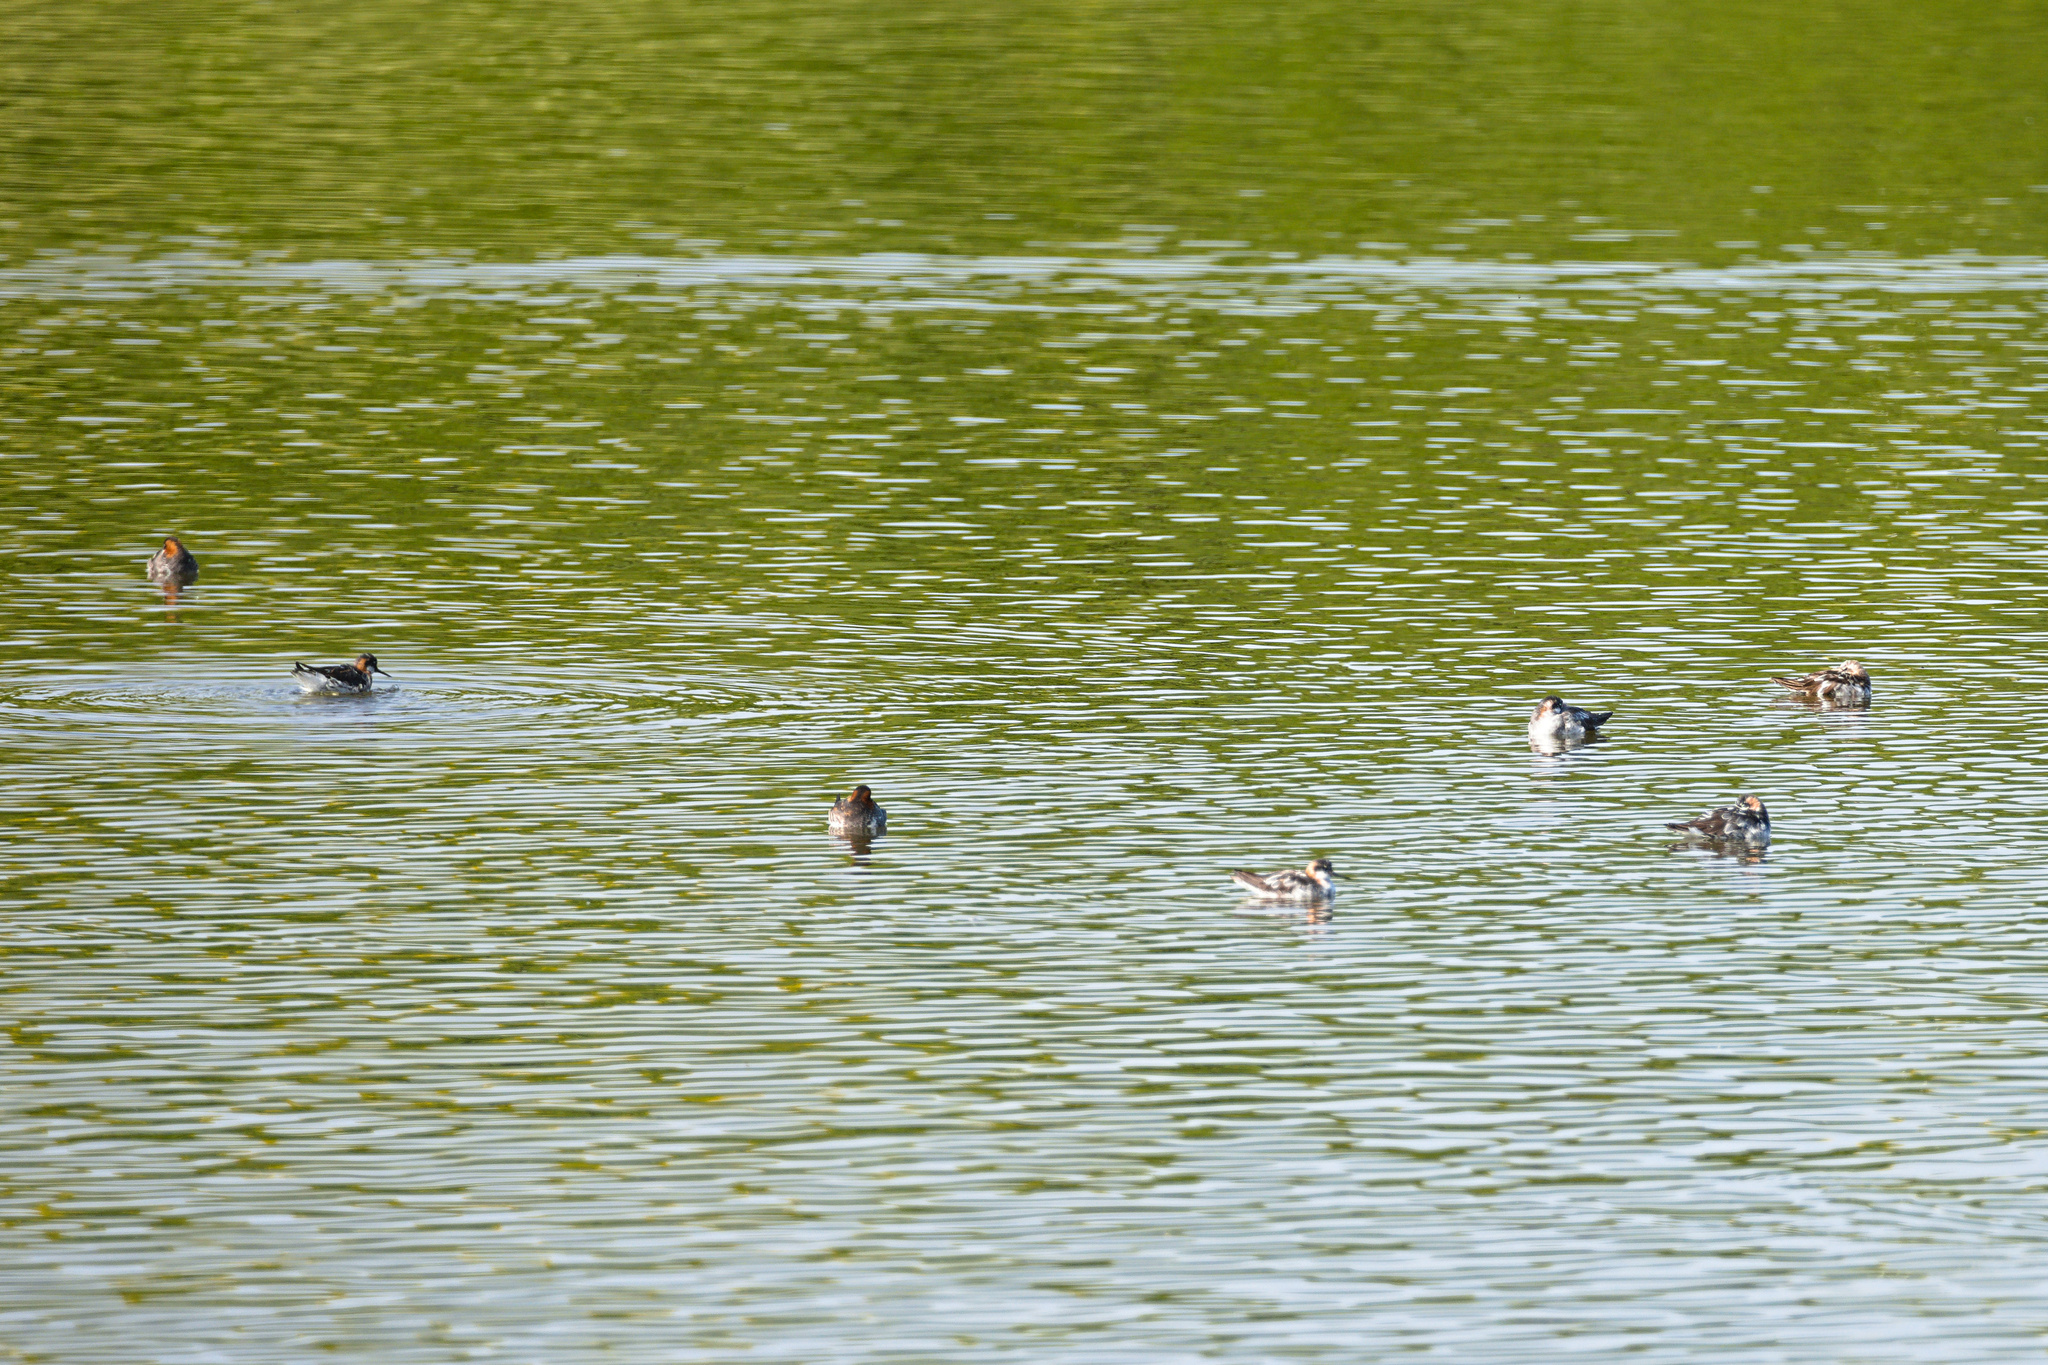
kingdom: Animalia
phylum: Chordata
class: Aves
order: Charadriiformes
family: Scolopacidae
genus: Phalaropus
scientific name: Phalaropus lobatus
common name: Red-necked phalarope
